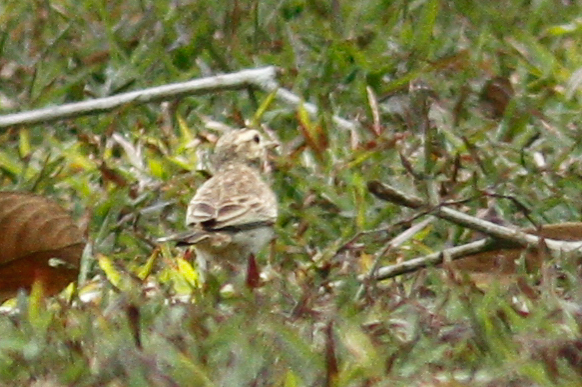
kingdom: Animalia
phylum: Chordata
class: Aves
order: Passeriformes
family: Motacillidae
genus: Anthus
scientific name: Anthus rufulus
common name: Paddyfield pipit
